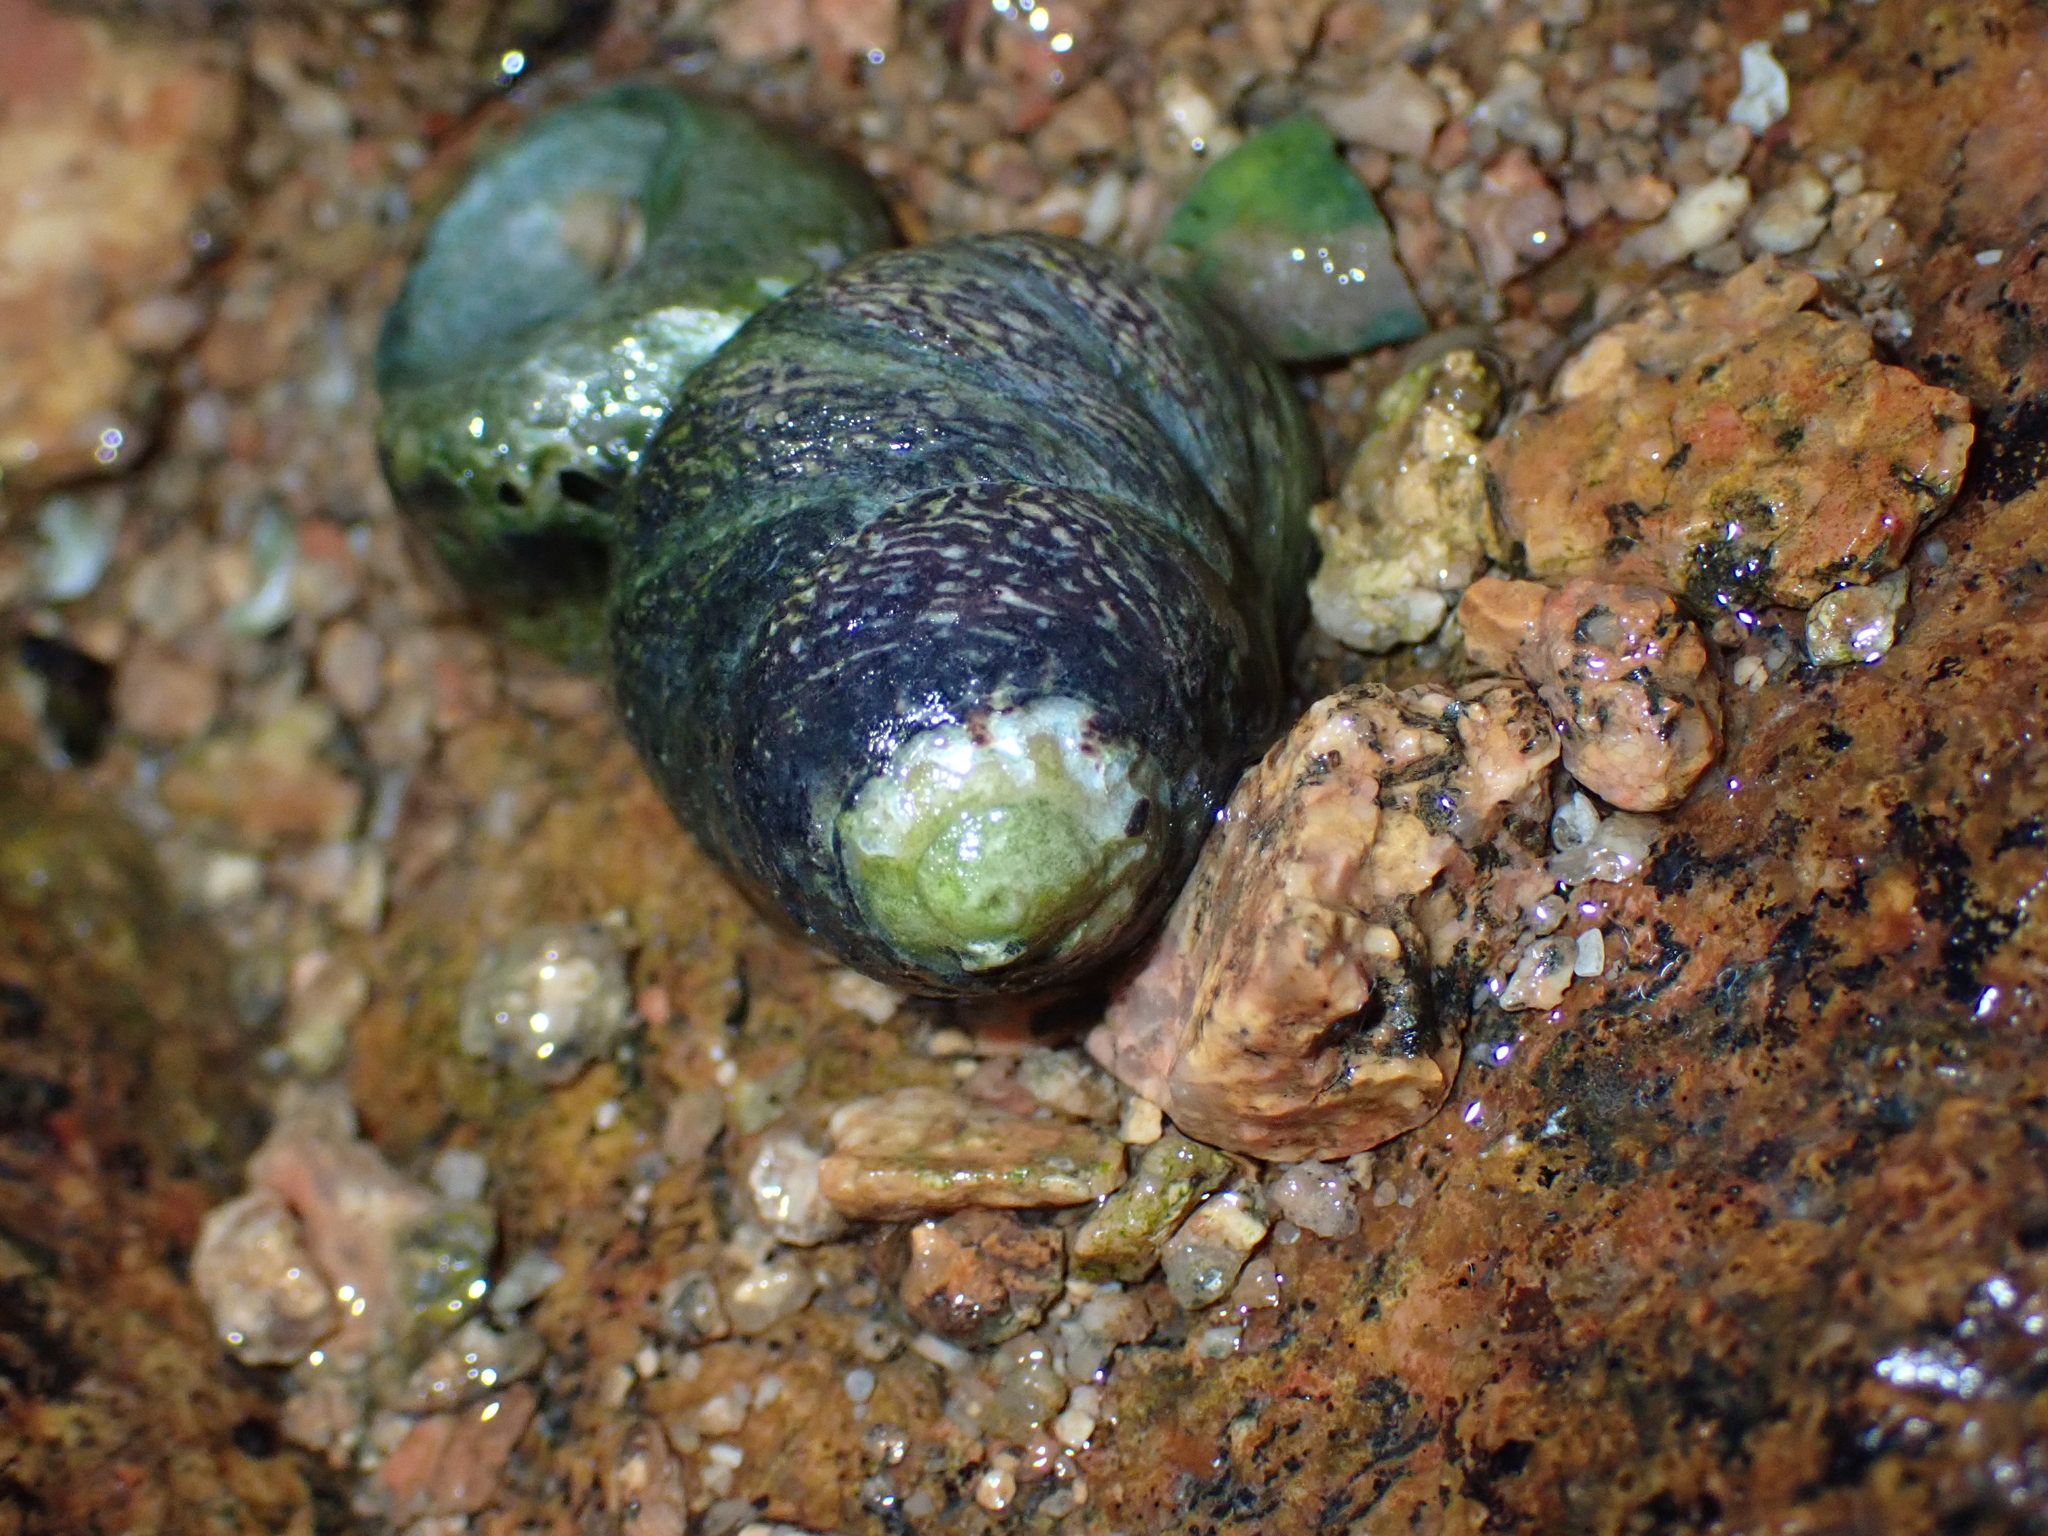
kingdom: Animalia
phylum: Mollusca
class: Gastropoda
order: Trochida
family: Trochidae
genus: Phorcus
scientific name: Phorcus lineatus
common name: Toothed top shell
